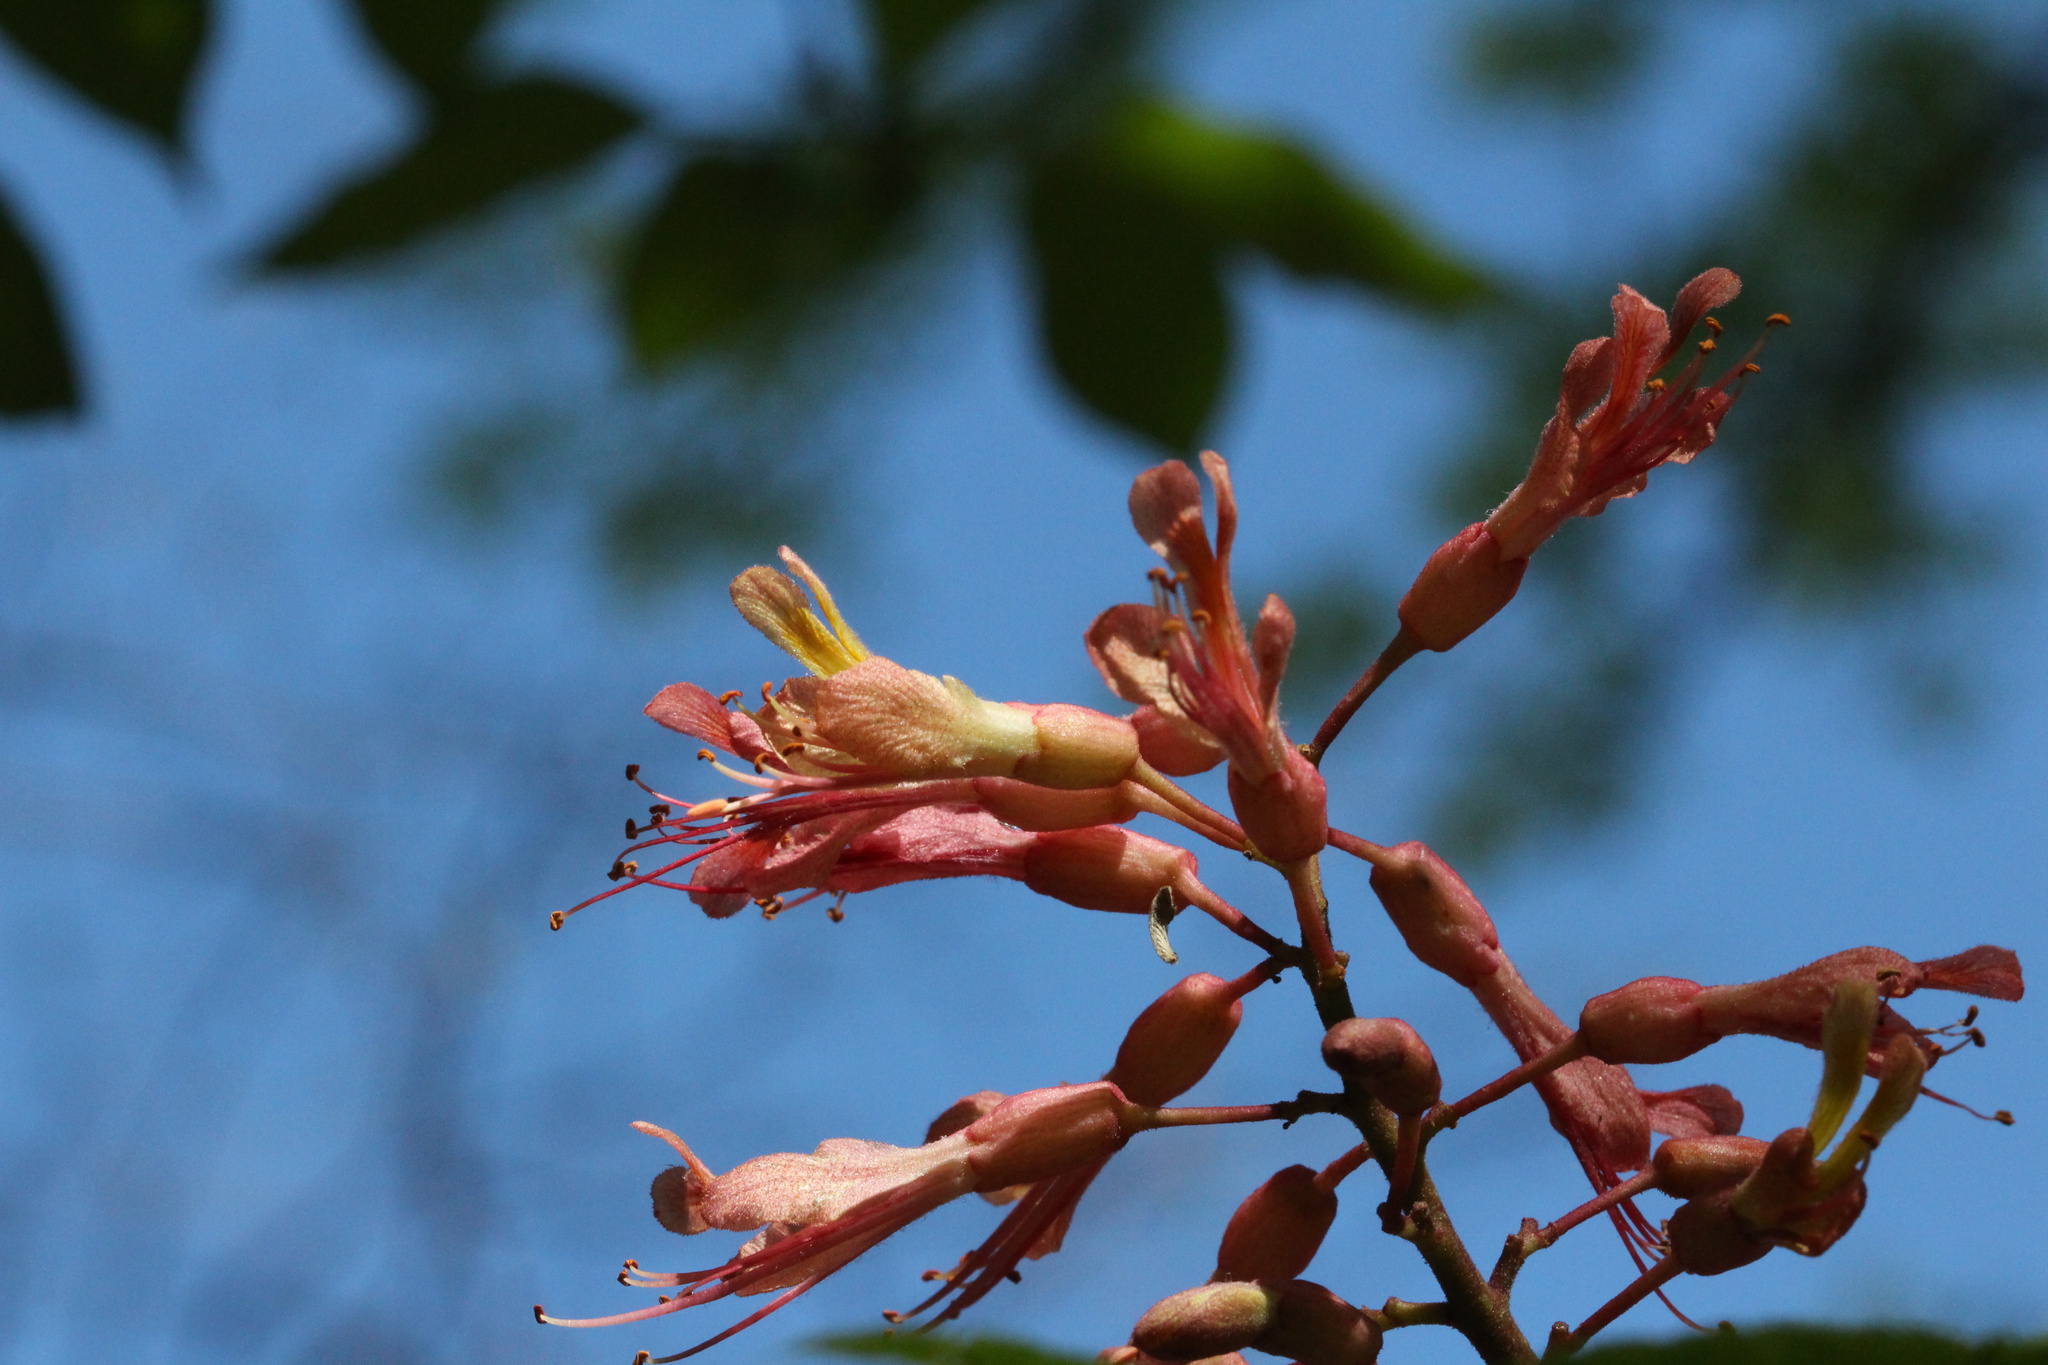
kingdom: Plantae
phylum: Tracheophyta
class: Magnoliopsida
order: Sapindales
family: Sapindaceae
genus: Aesculus
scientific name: Aesculus bushii
